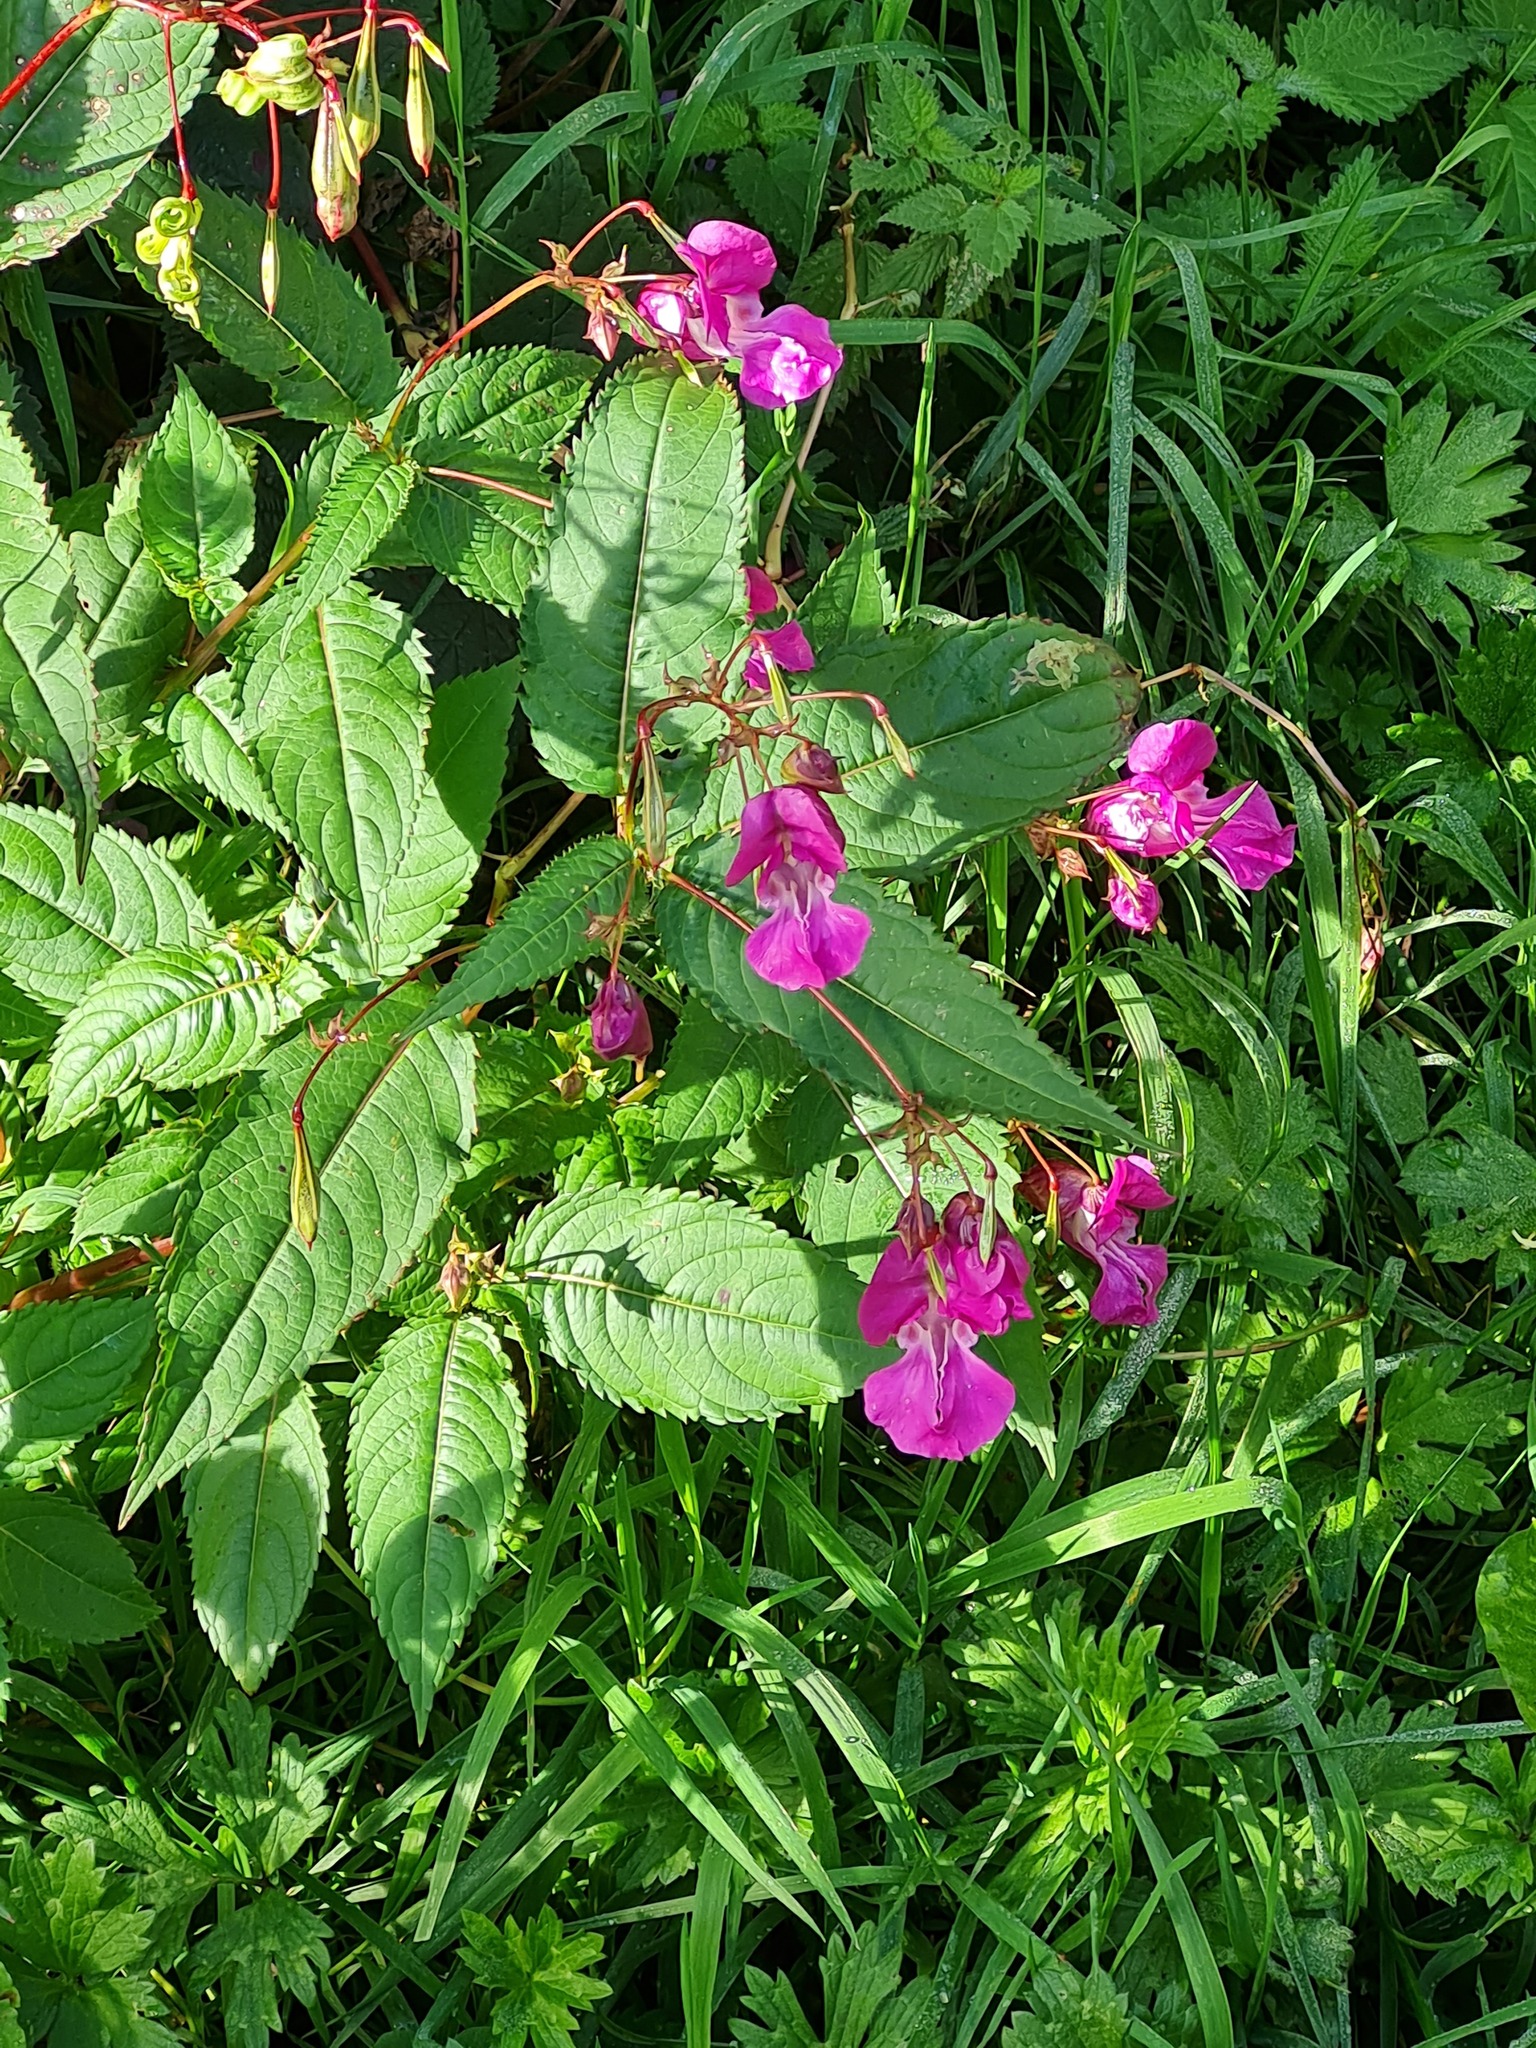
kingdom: Plantae
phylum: Tracheophyta
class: Magnoliopsida
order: Ericales
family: Balsaminaceae
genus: Impatiens
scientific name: Impatiens glandulifera
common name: Himalayan balsam
